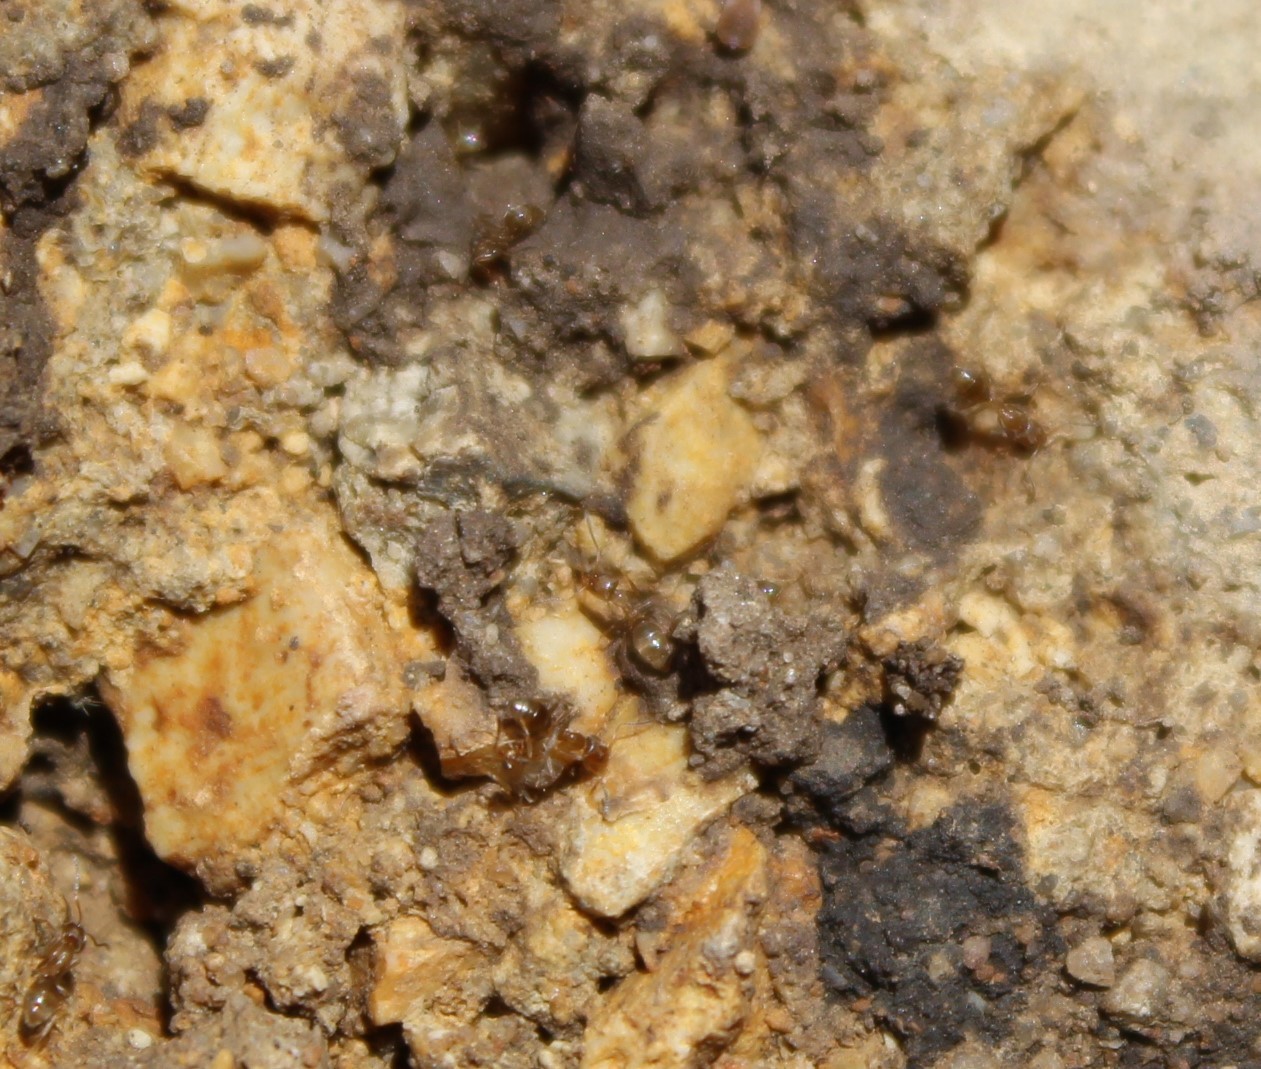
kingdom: Animalia
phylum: Arthropoda
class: Insecta
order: Hymenoptera
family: Formicidae
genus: Linepithema
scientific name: Linepithema humile
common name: Argentine ant
